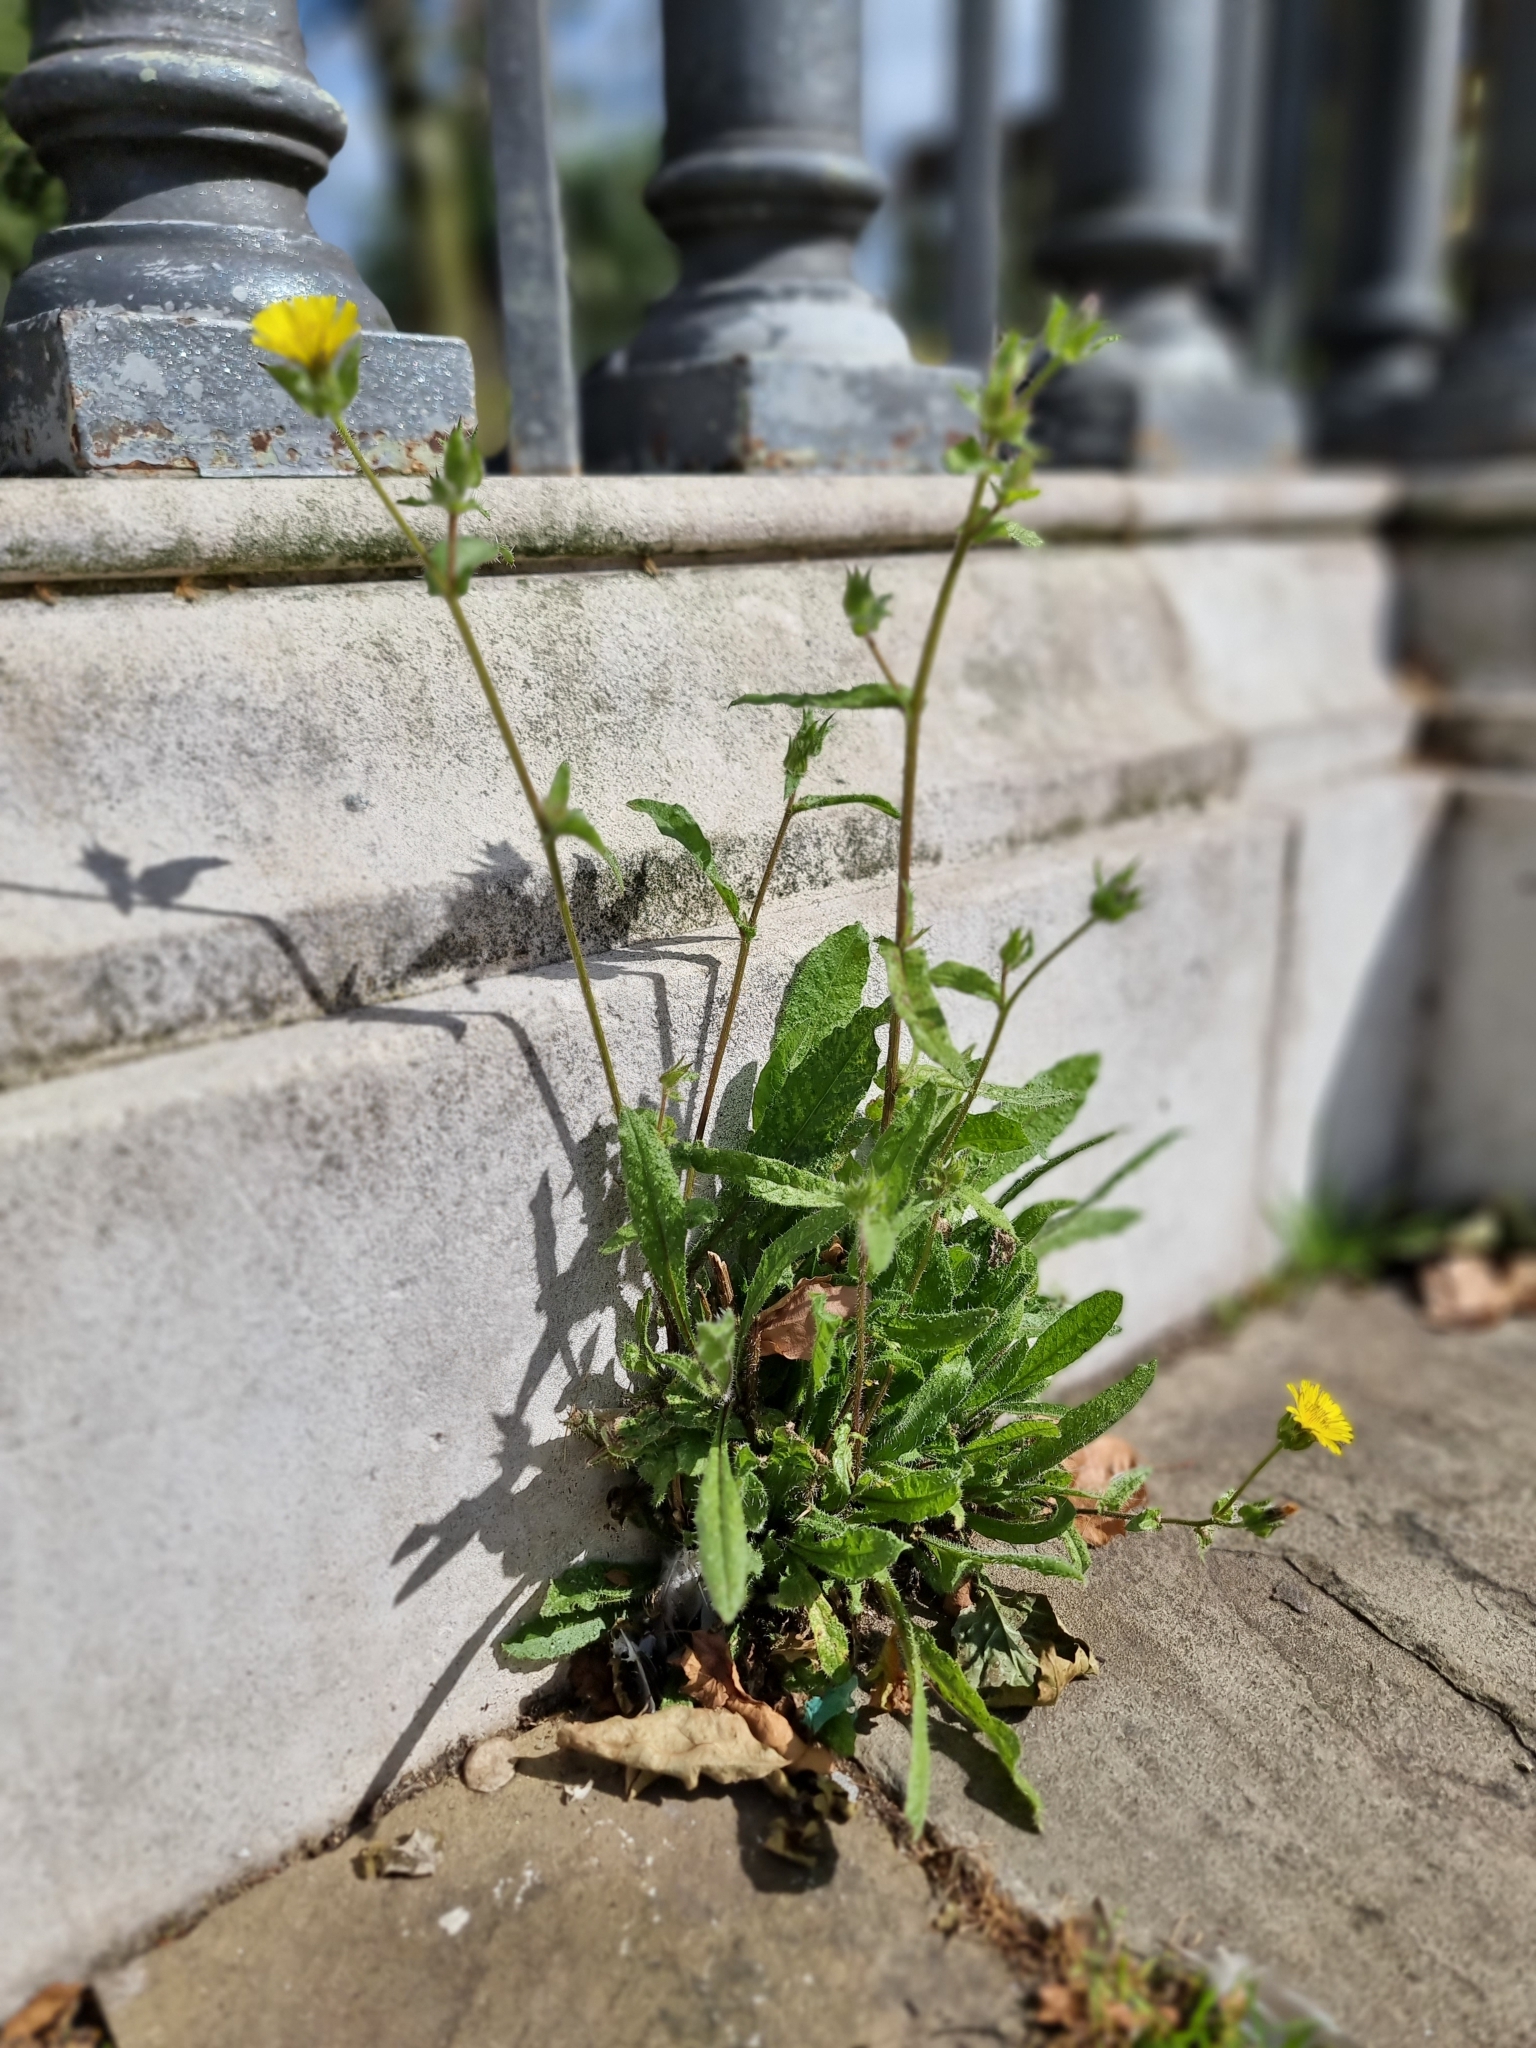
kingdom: Plantae
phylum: Tracheophyta
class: Magnoliopsida
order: Asterales
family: Asteraceae
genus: Helminthotheca
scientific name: Helminthotheca echioides
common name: Ox-tongue
